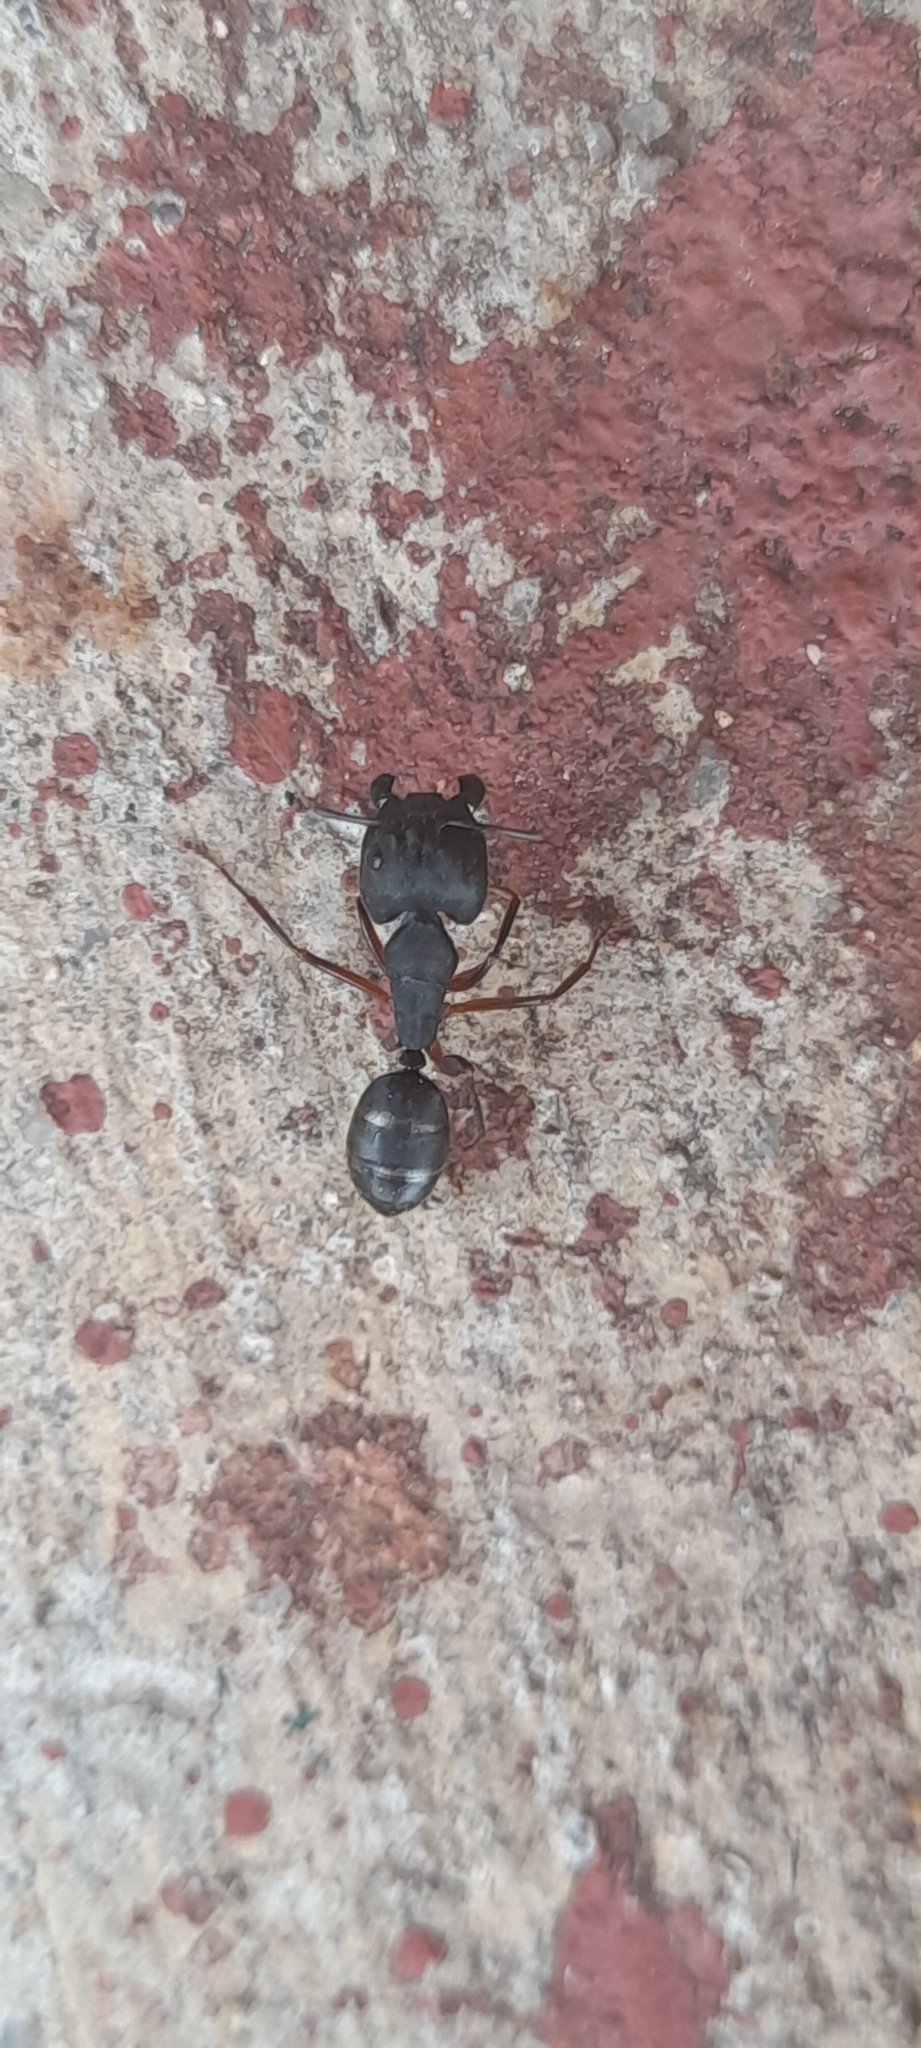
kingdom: Animalia
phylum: Arthropoda
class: Insecta
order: Hymenoptera
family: Formicidae
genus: Camponotus
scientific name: Camponotus compressus
